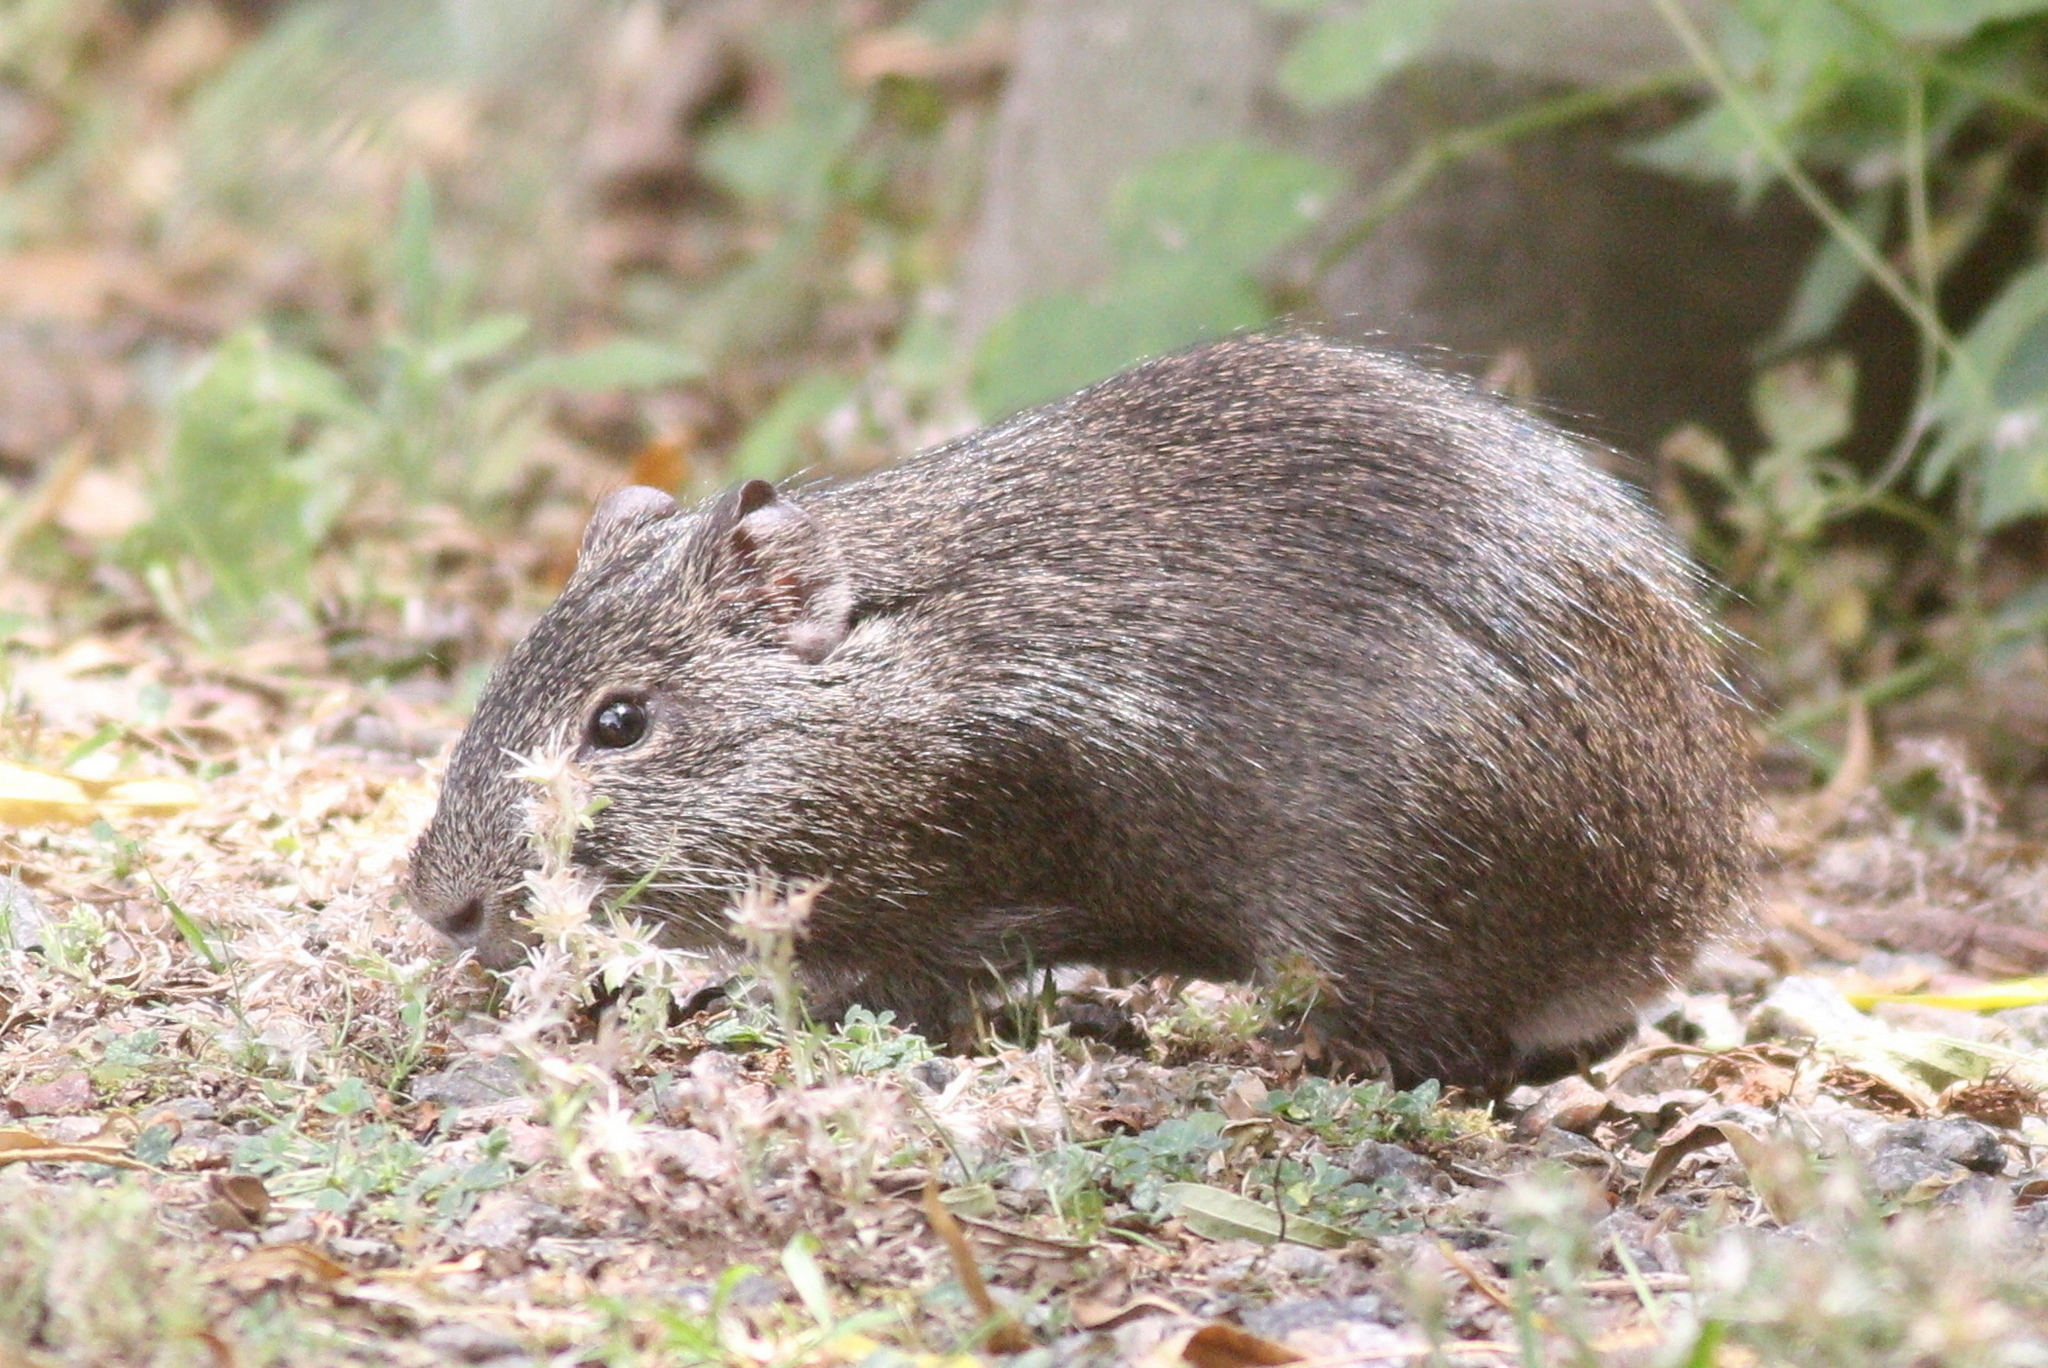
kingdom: Animalia
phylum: Chordata
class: Mammalia
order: Rodentia
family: Caviidae
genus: Cavia
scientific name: Cavia aperea
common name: Brazilian guinea pig
